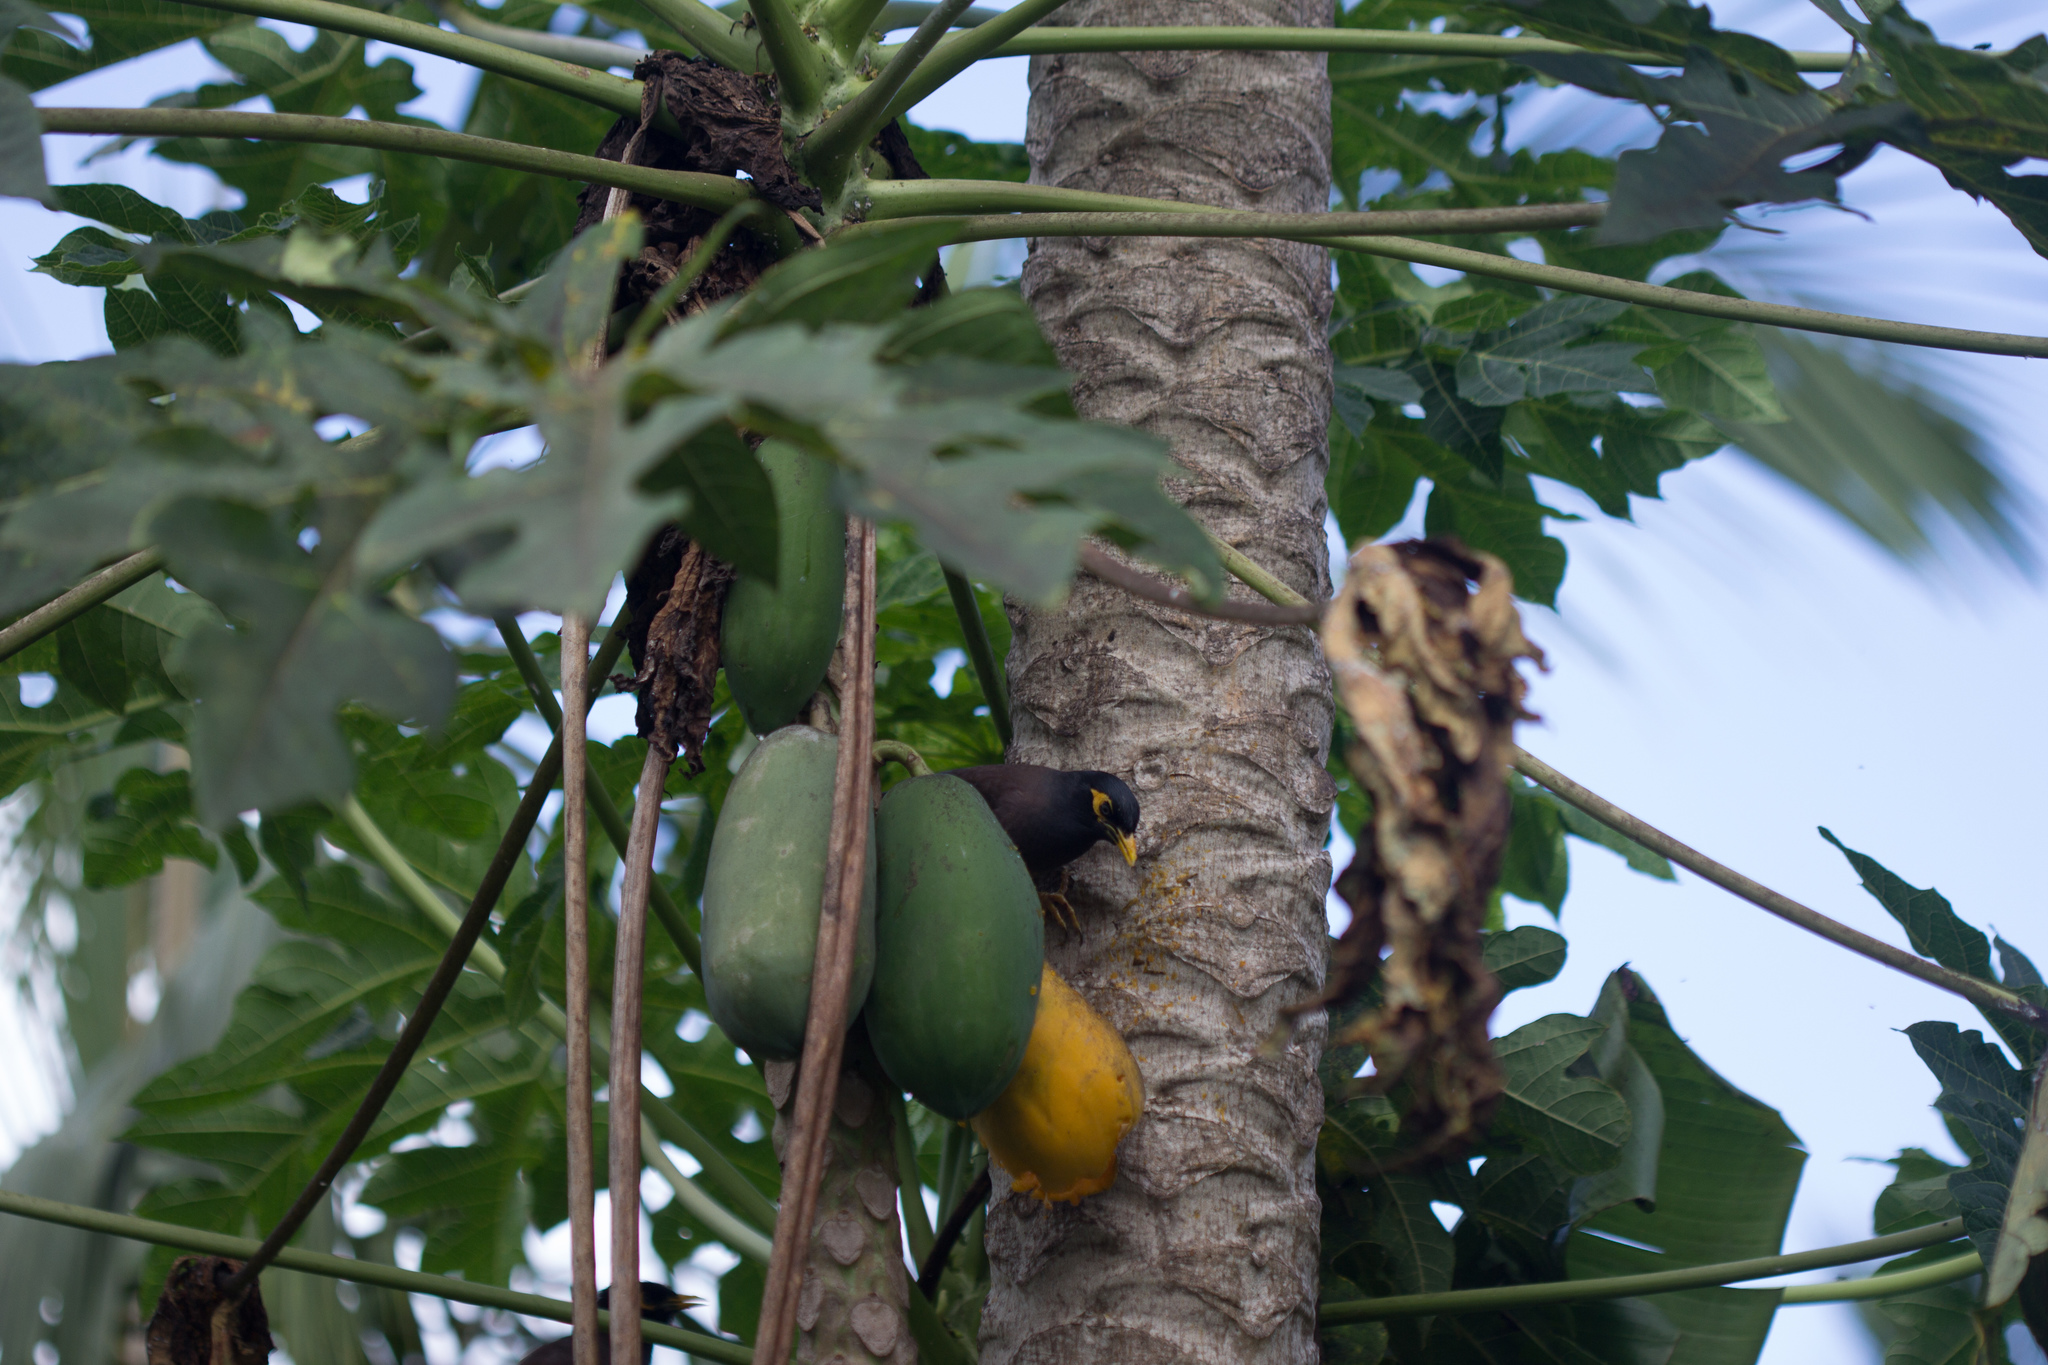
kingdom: Animalia
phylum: Chordata
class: Aves
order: Passeriformes
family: Sturnidae
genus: Acridotheres
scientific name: Acridotheres tristis
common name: Common myna
